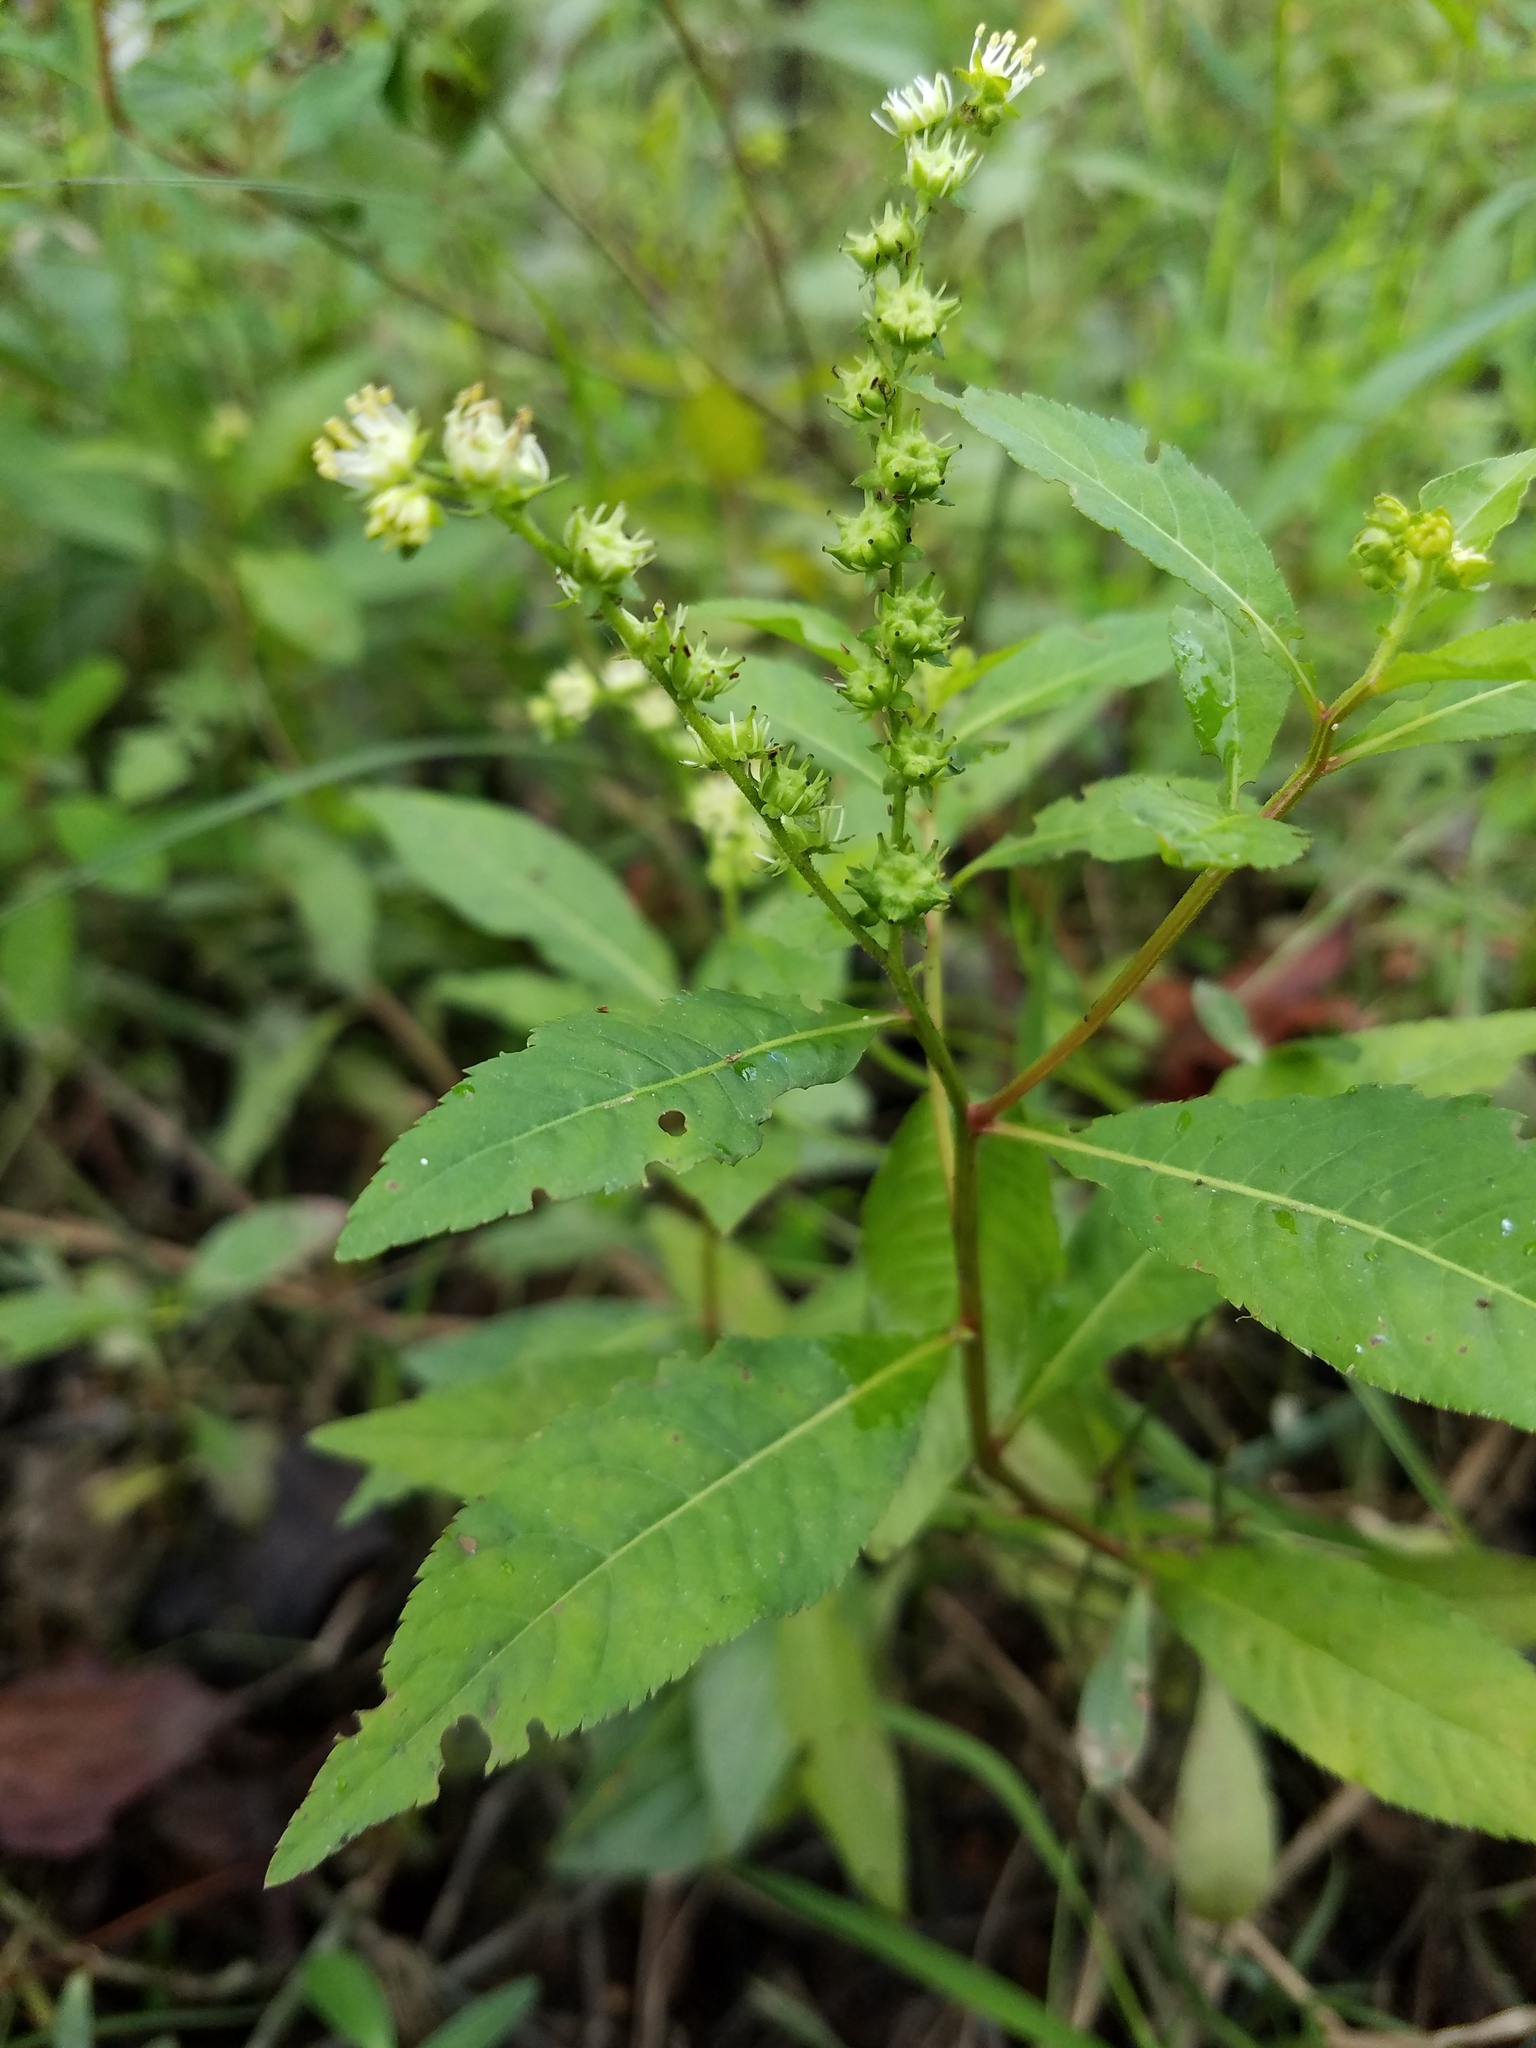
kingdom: Plantae
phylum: Tracheophyta
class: Magnoliopsida
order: Saxifragales
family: Penthoraceae
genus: Penthorum
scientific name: Penthorum sedoides
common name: Ditch stonecrop
